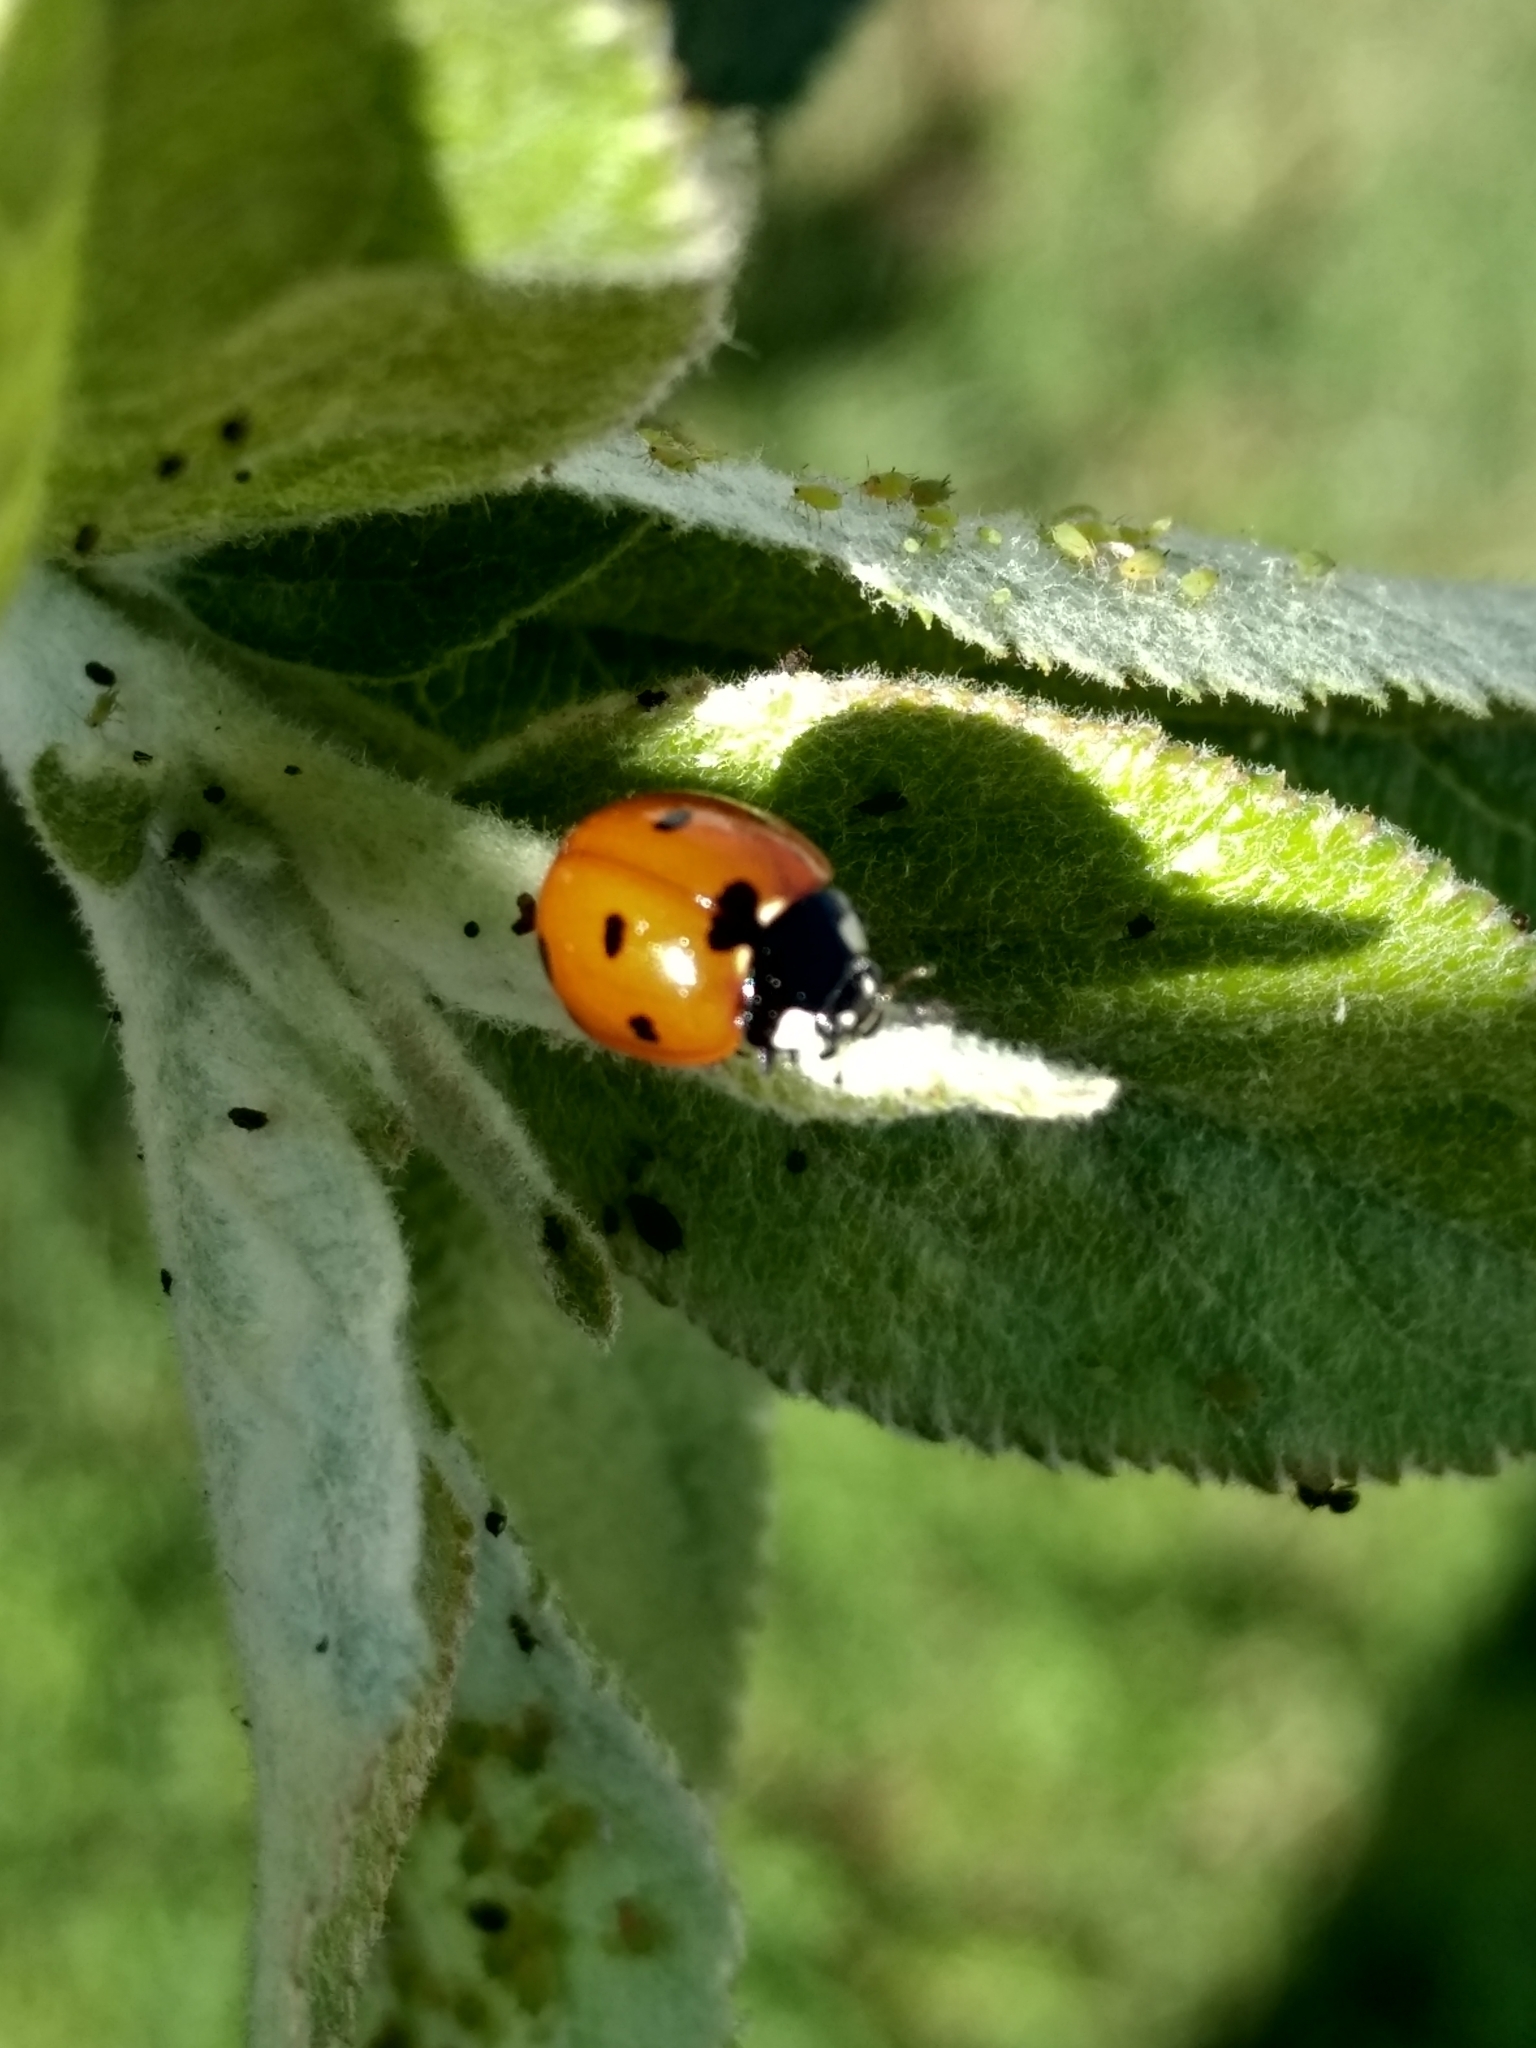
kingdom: Animalia
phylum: Arthropoda
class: Insecta
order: Coleoptera
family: Coccinellidae
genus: Coccinella
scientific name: Coccinella septempunctata
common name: Sevenspotted lady beetle
